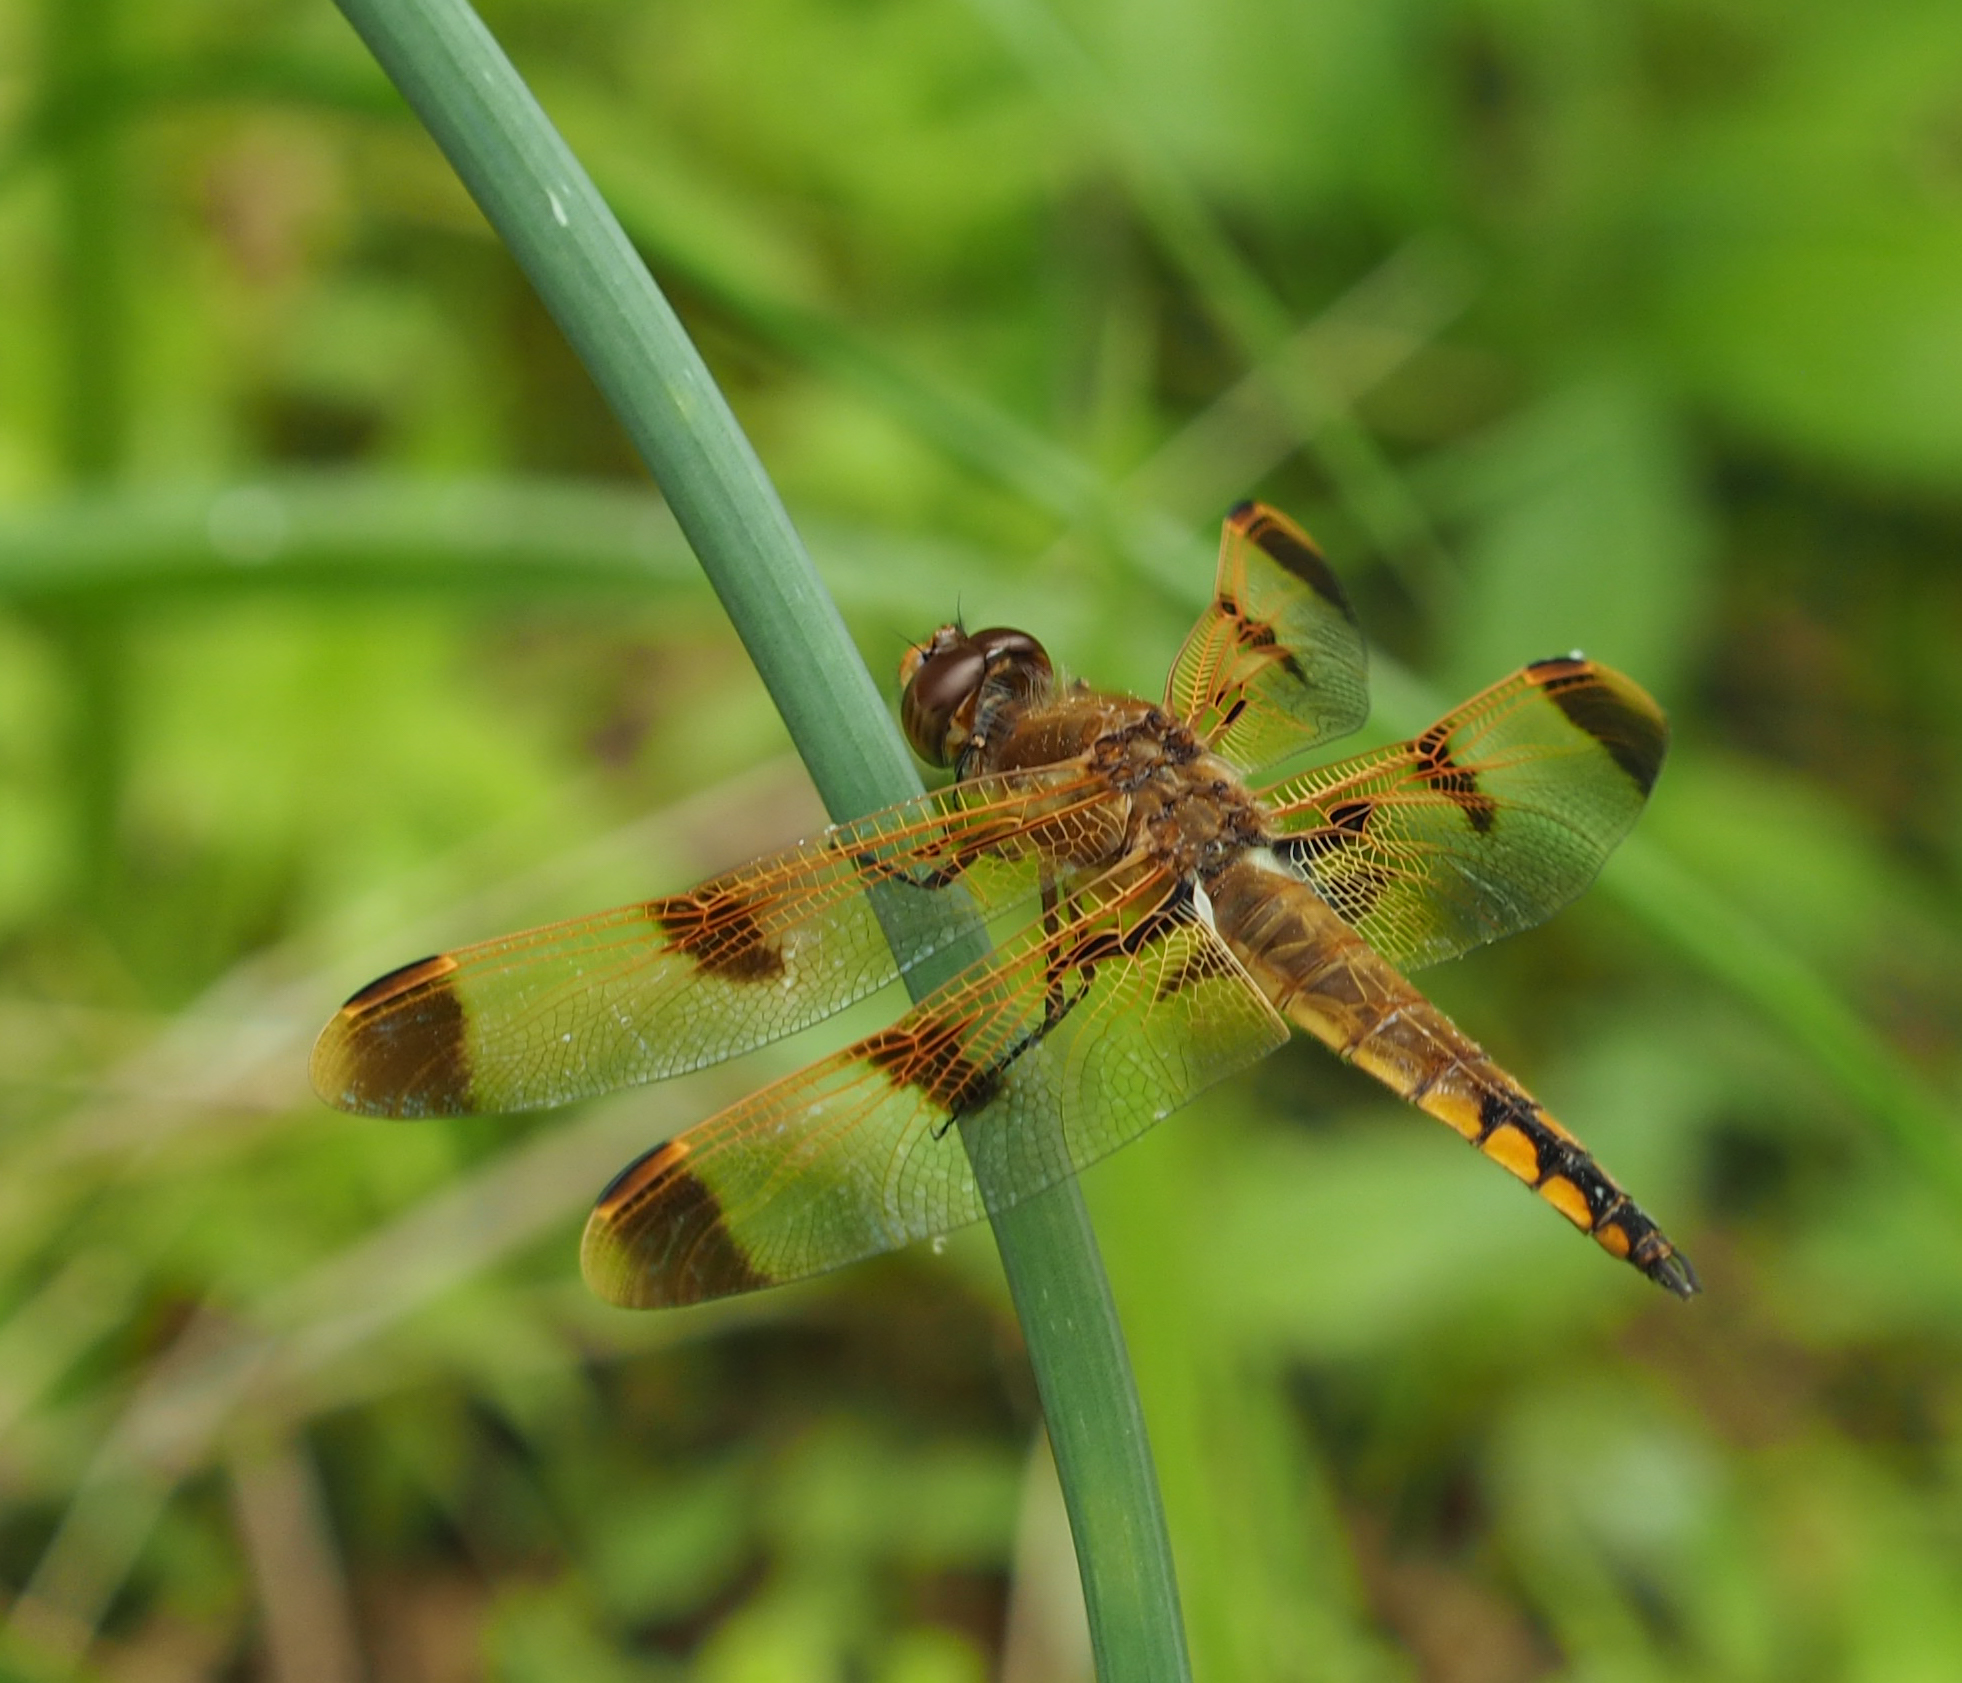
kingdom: Animalia
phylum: Arthropoda
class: Insecta
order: Odonata
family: Libellulidae
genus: Libellula
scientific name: Libellula semifasciata
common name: Painted skimmer
